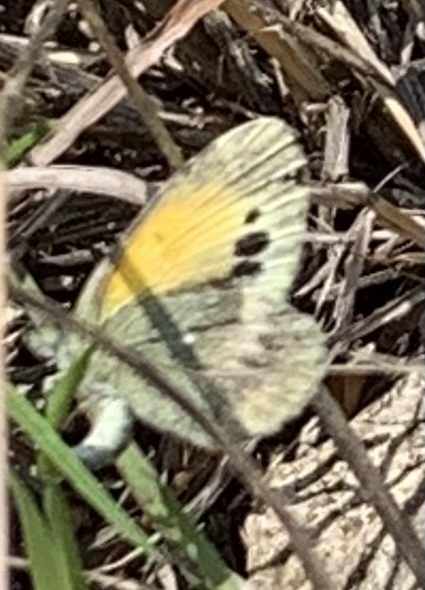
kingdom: Animalia
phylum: Arthropoda
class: Insecta
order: Lepidoptera
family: Pieridae
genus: Nathalis
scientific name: Nathalis iole
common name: Dainty sulphur
